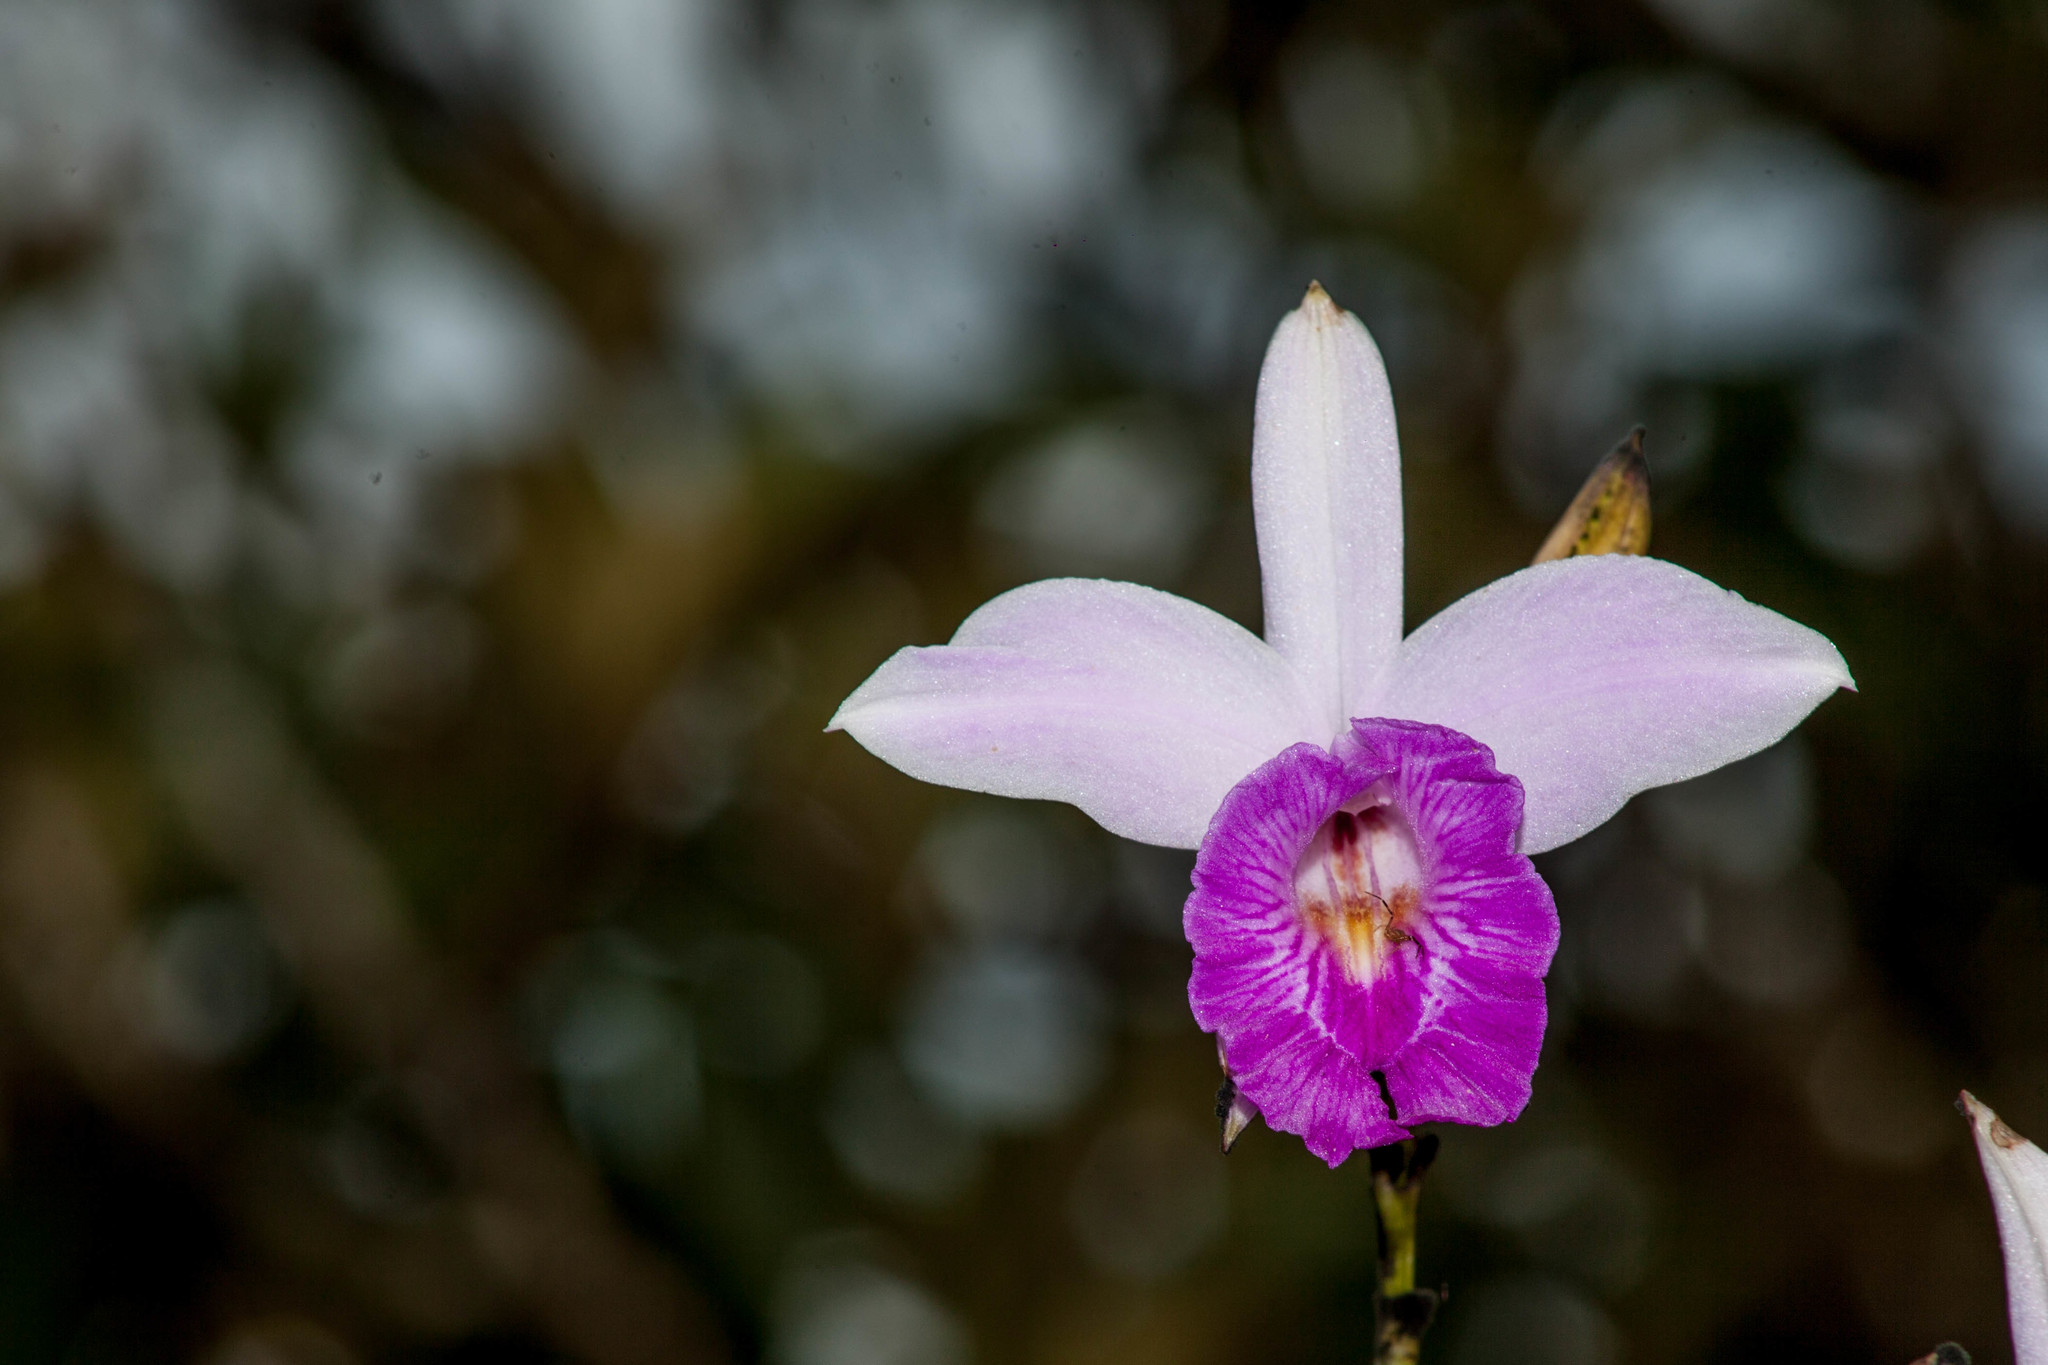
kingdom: Plantae
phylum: Tracheophyta
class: Liliopsida
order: Asparagales
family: Orchidaceae
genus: Arundina
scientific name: Arundina graminifolia
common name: Bamboo orchid
